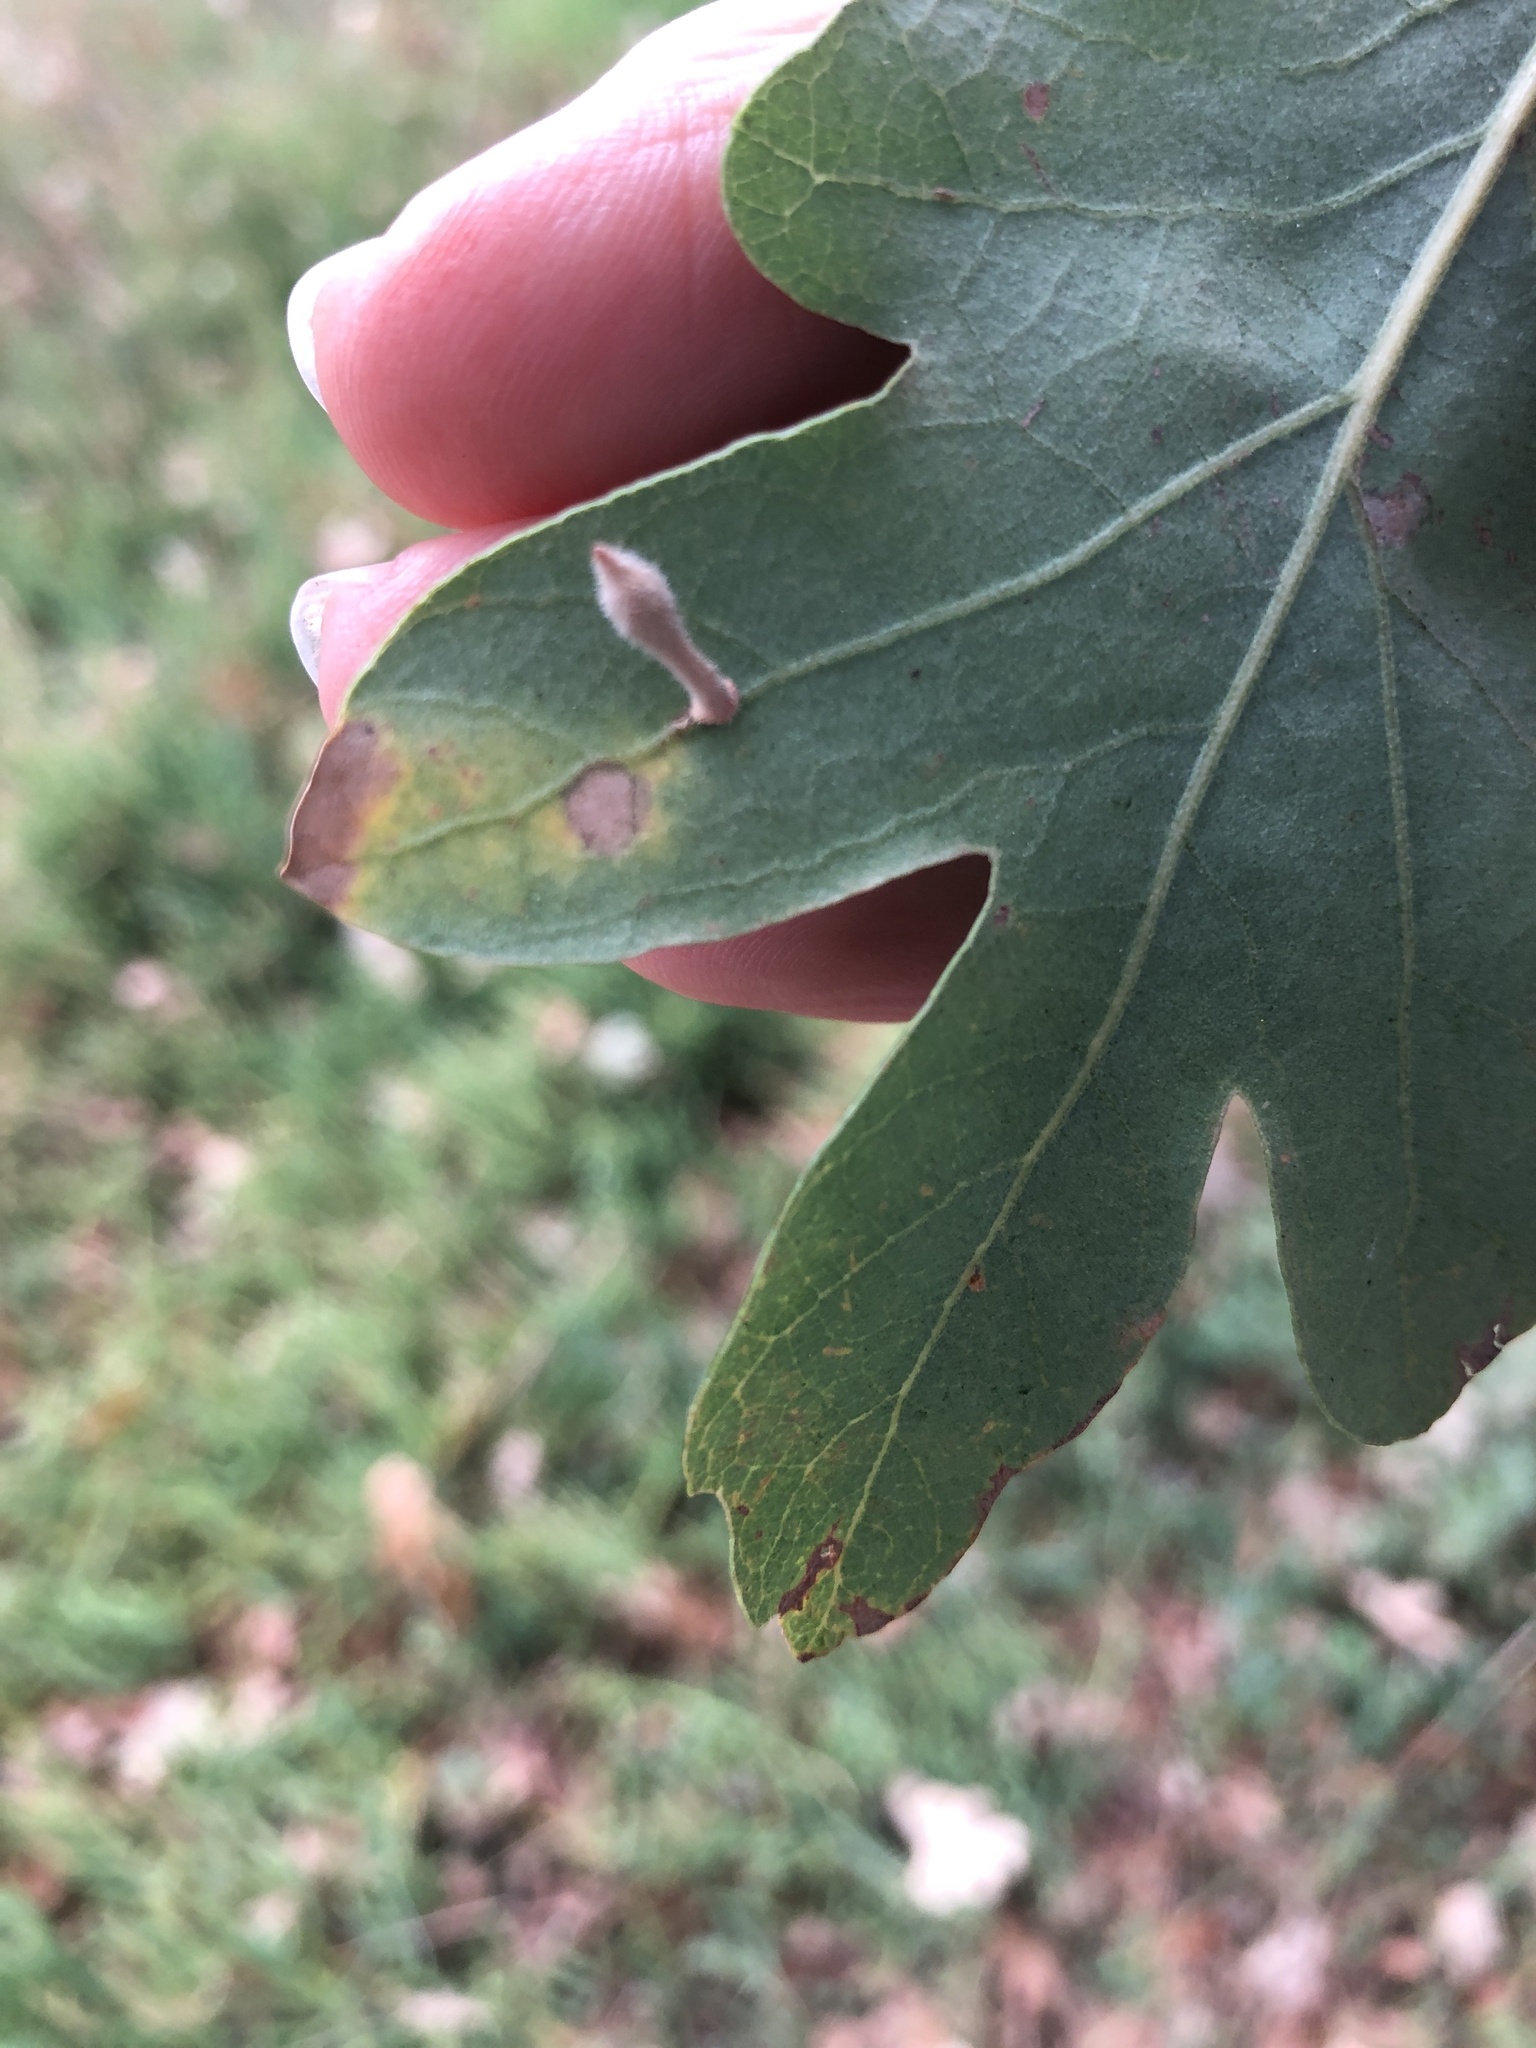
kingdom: Animalia
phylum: Arthropoda
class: Insecta
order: Hymenoptera
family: Cynipidae
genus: Atrusca
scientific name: Atrusca
